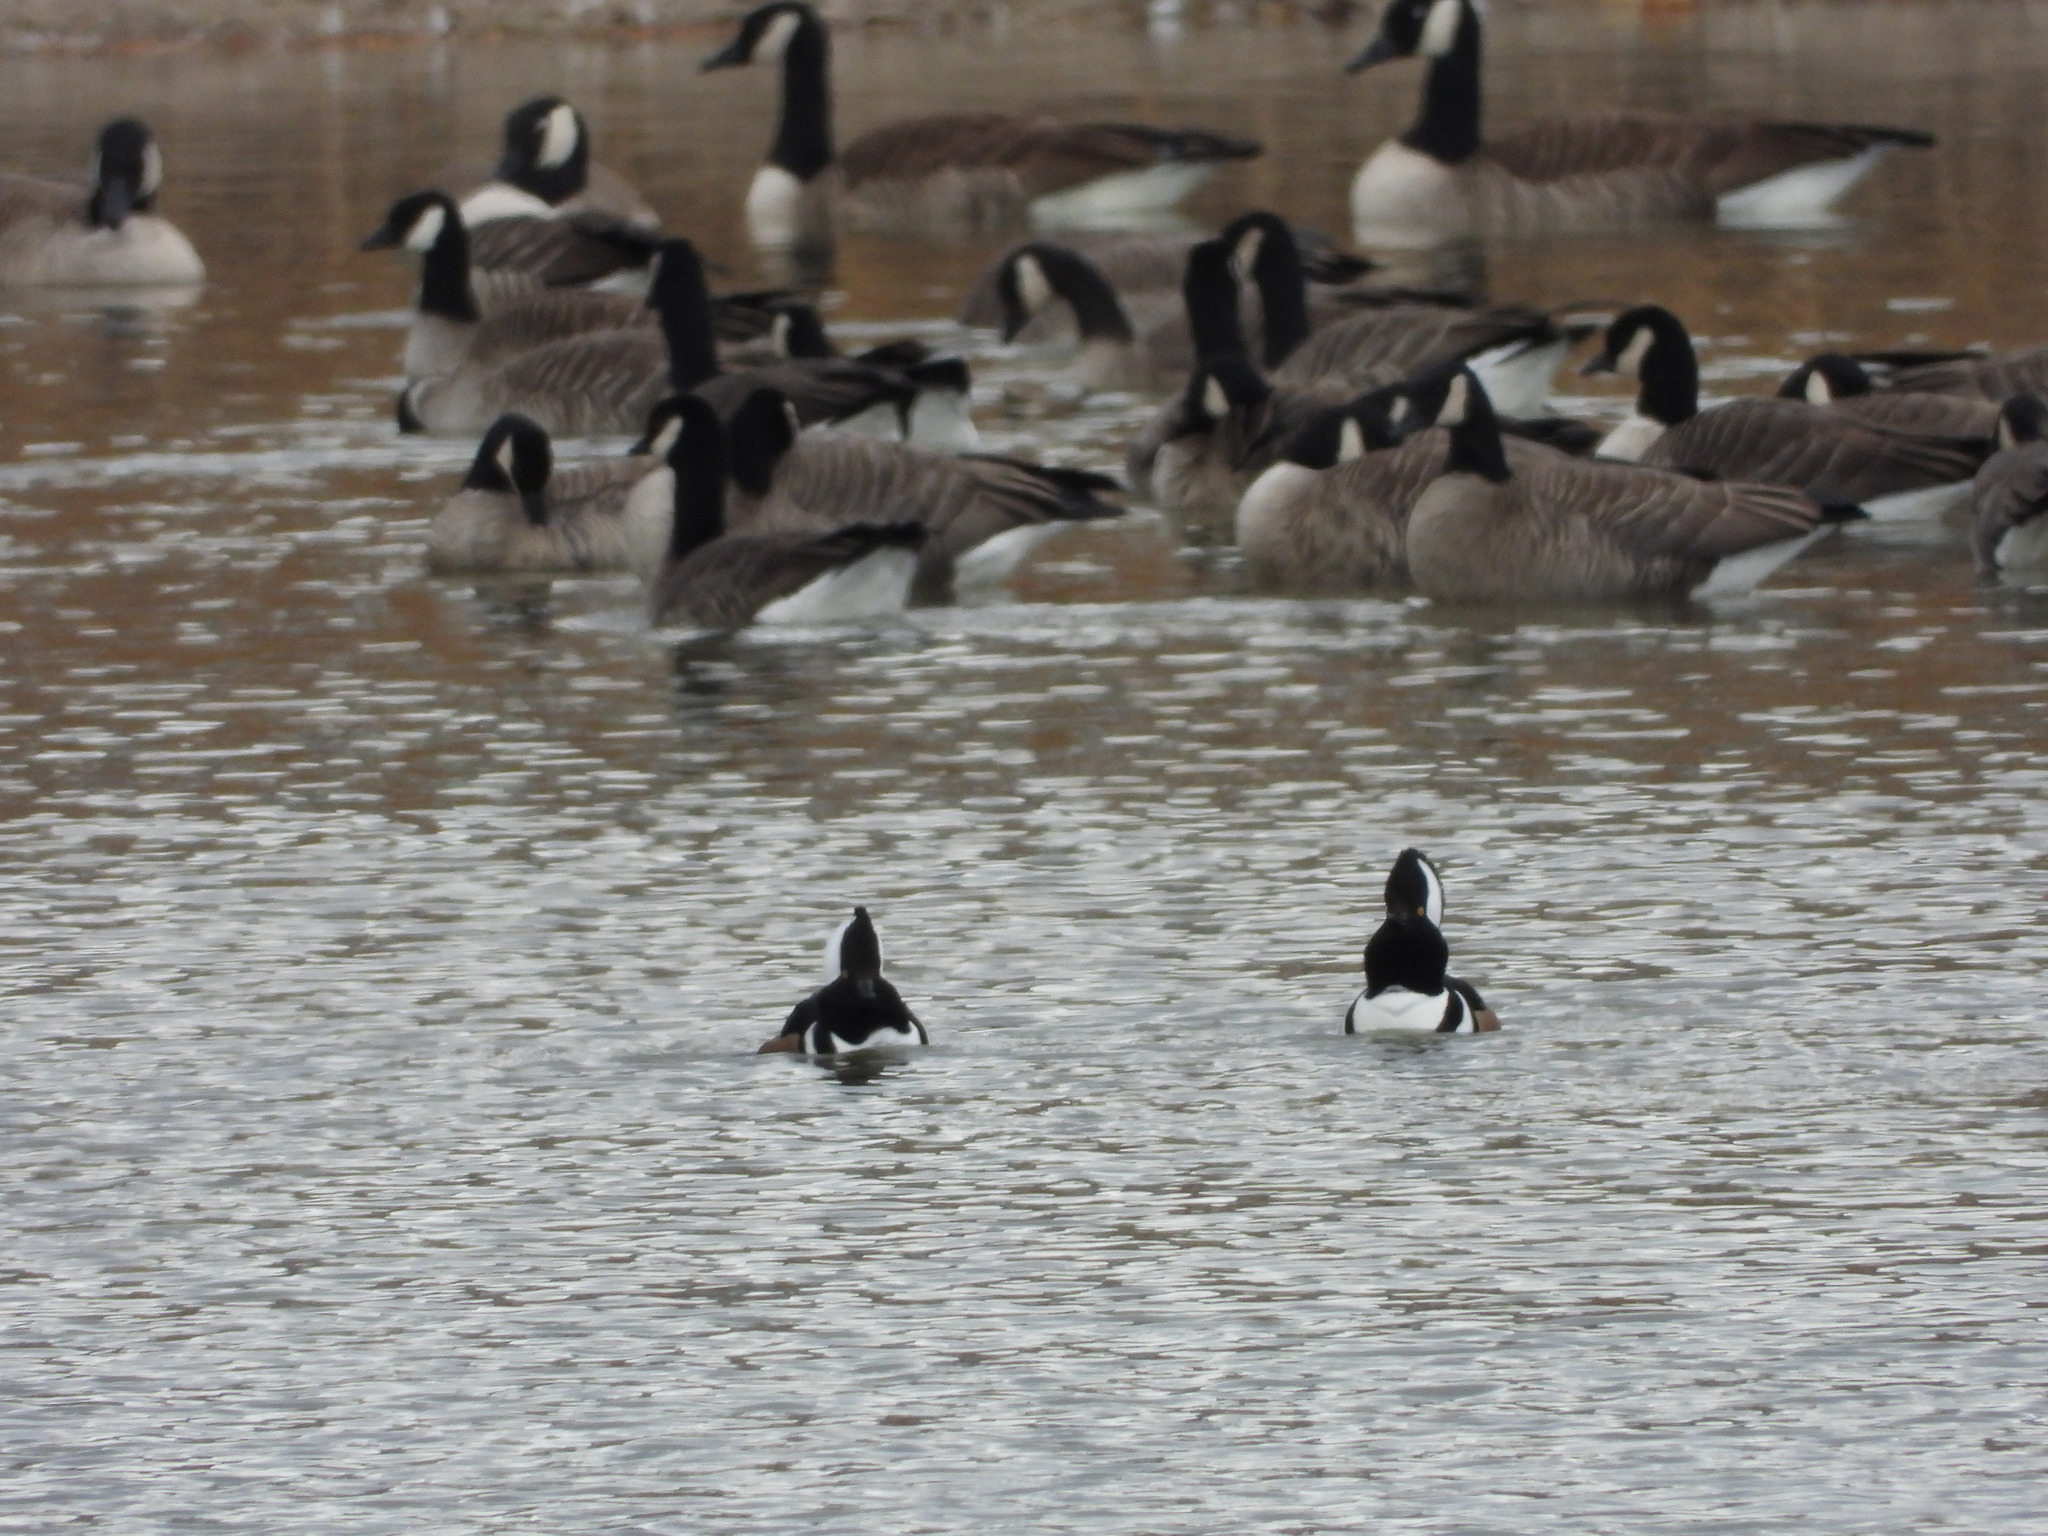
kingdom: Animalia
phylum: Chordata
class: Aves
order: Anseriformes
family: Anatidae
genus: Lophodytes
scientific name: Lophodytes cucullatus
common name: Hooded merganser
